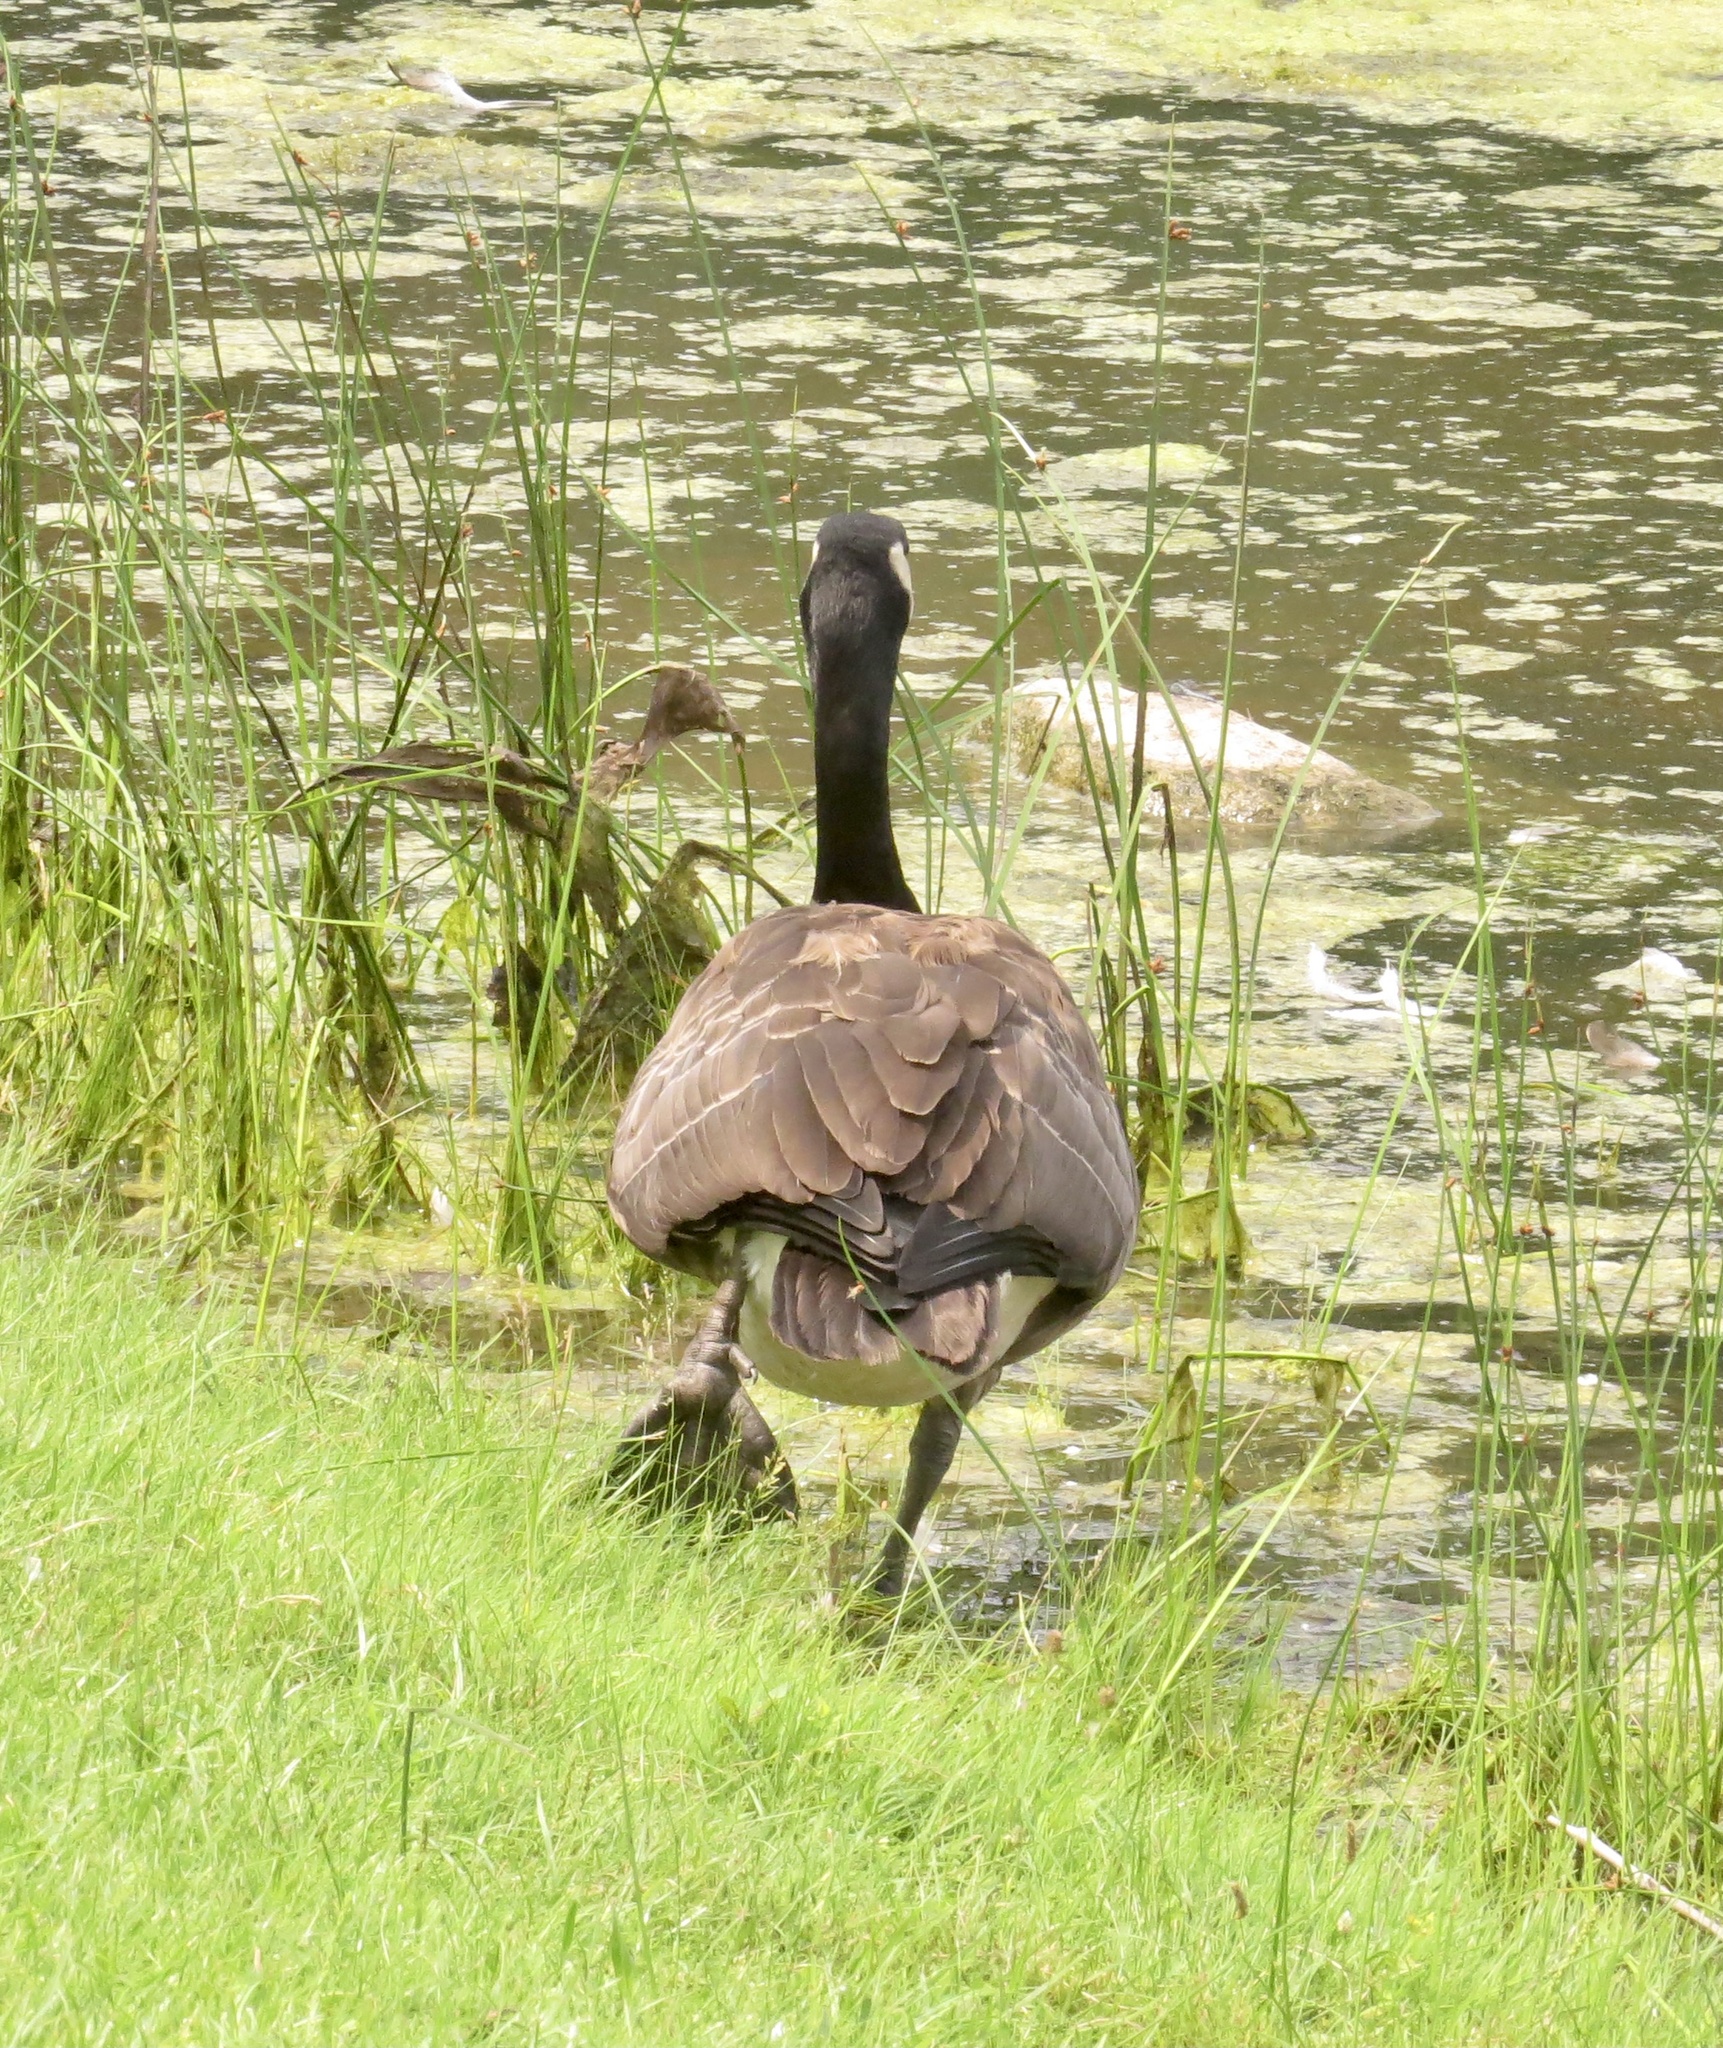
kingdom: Animalia
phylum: Chordata
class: Aves
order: Anseriformes
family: Anatidae
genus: Branta
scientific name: Branta canadensis
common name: Canada goose
